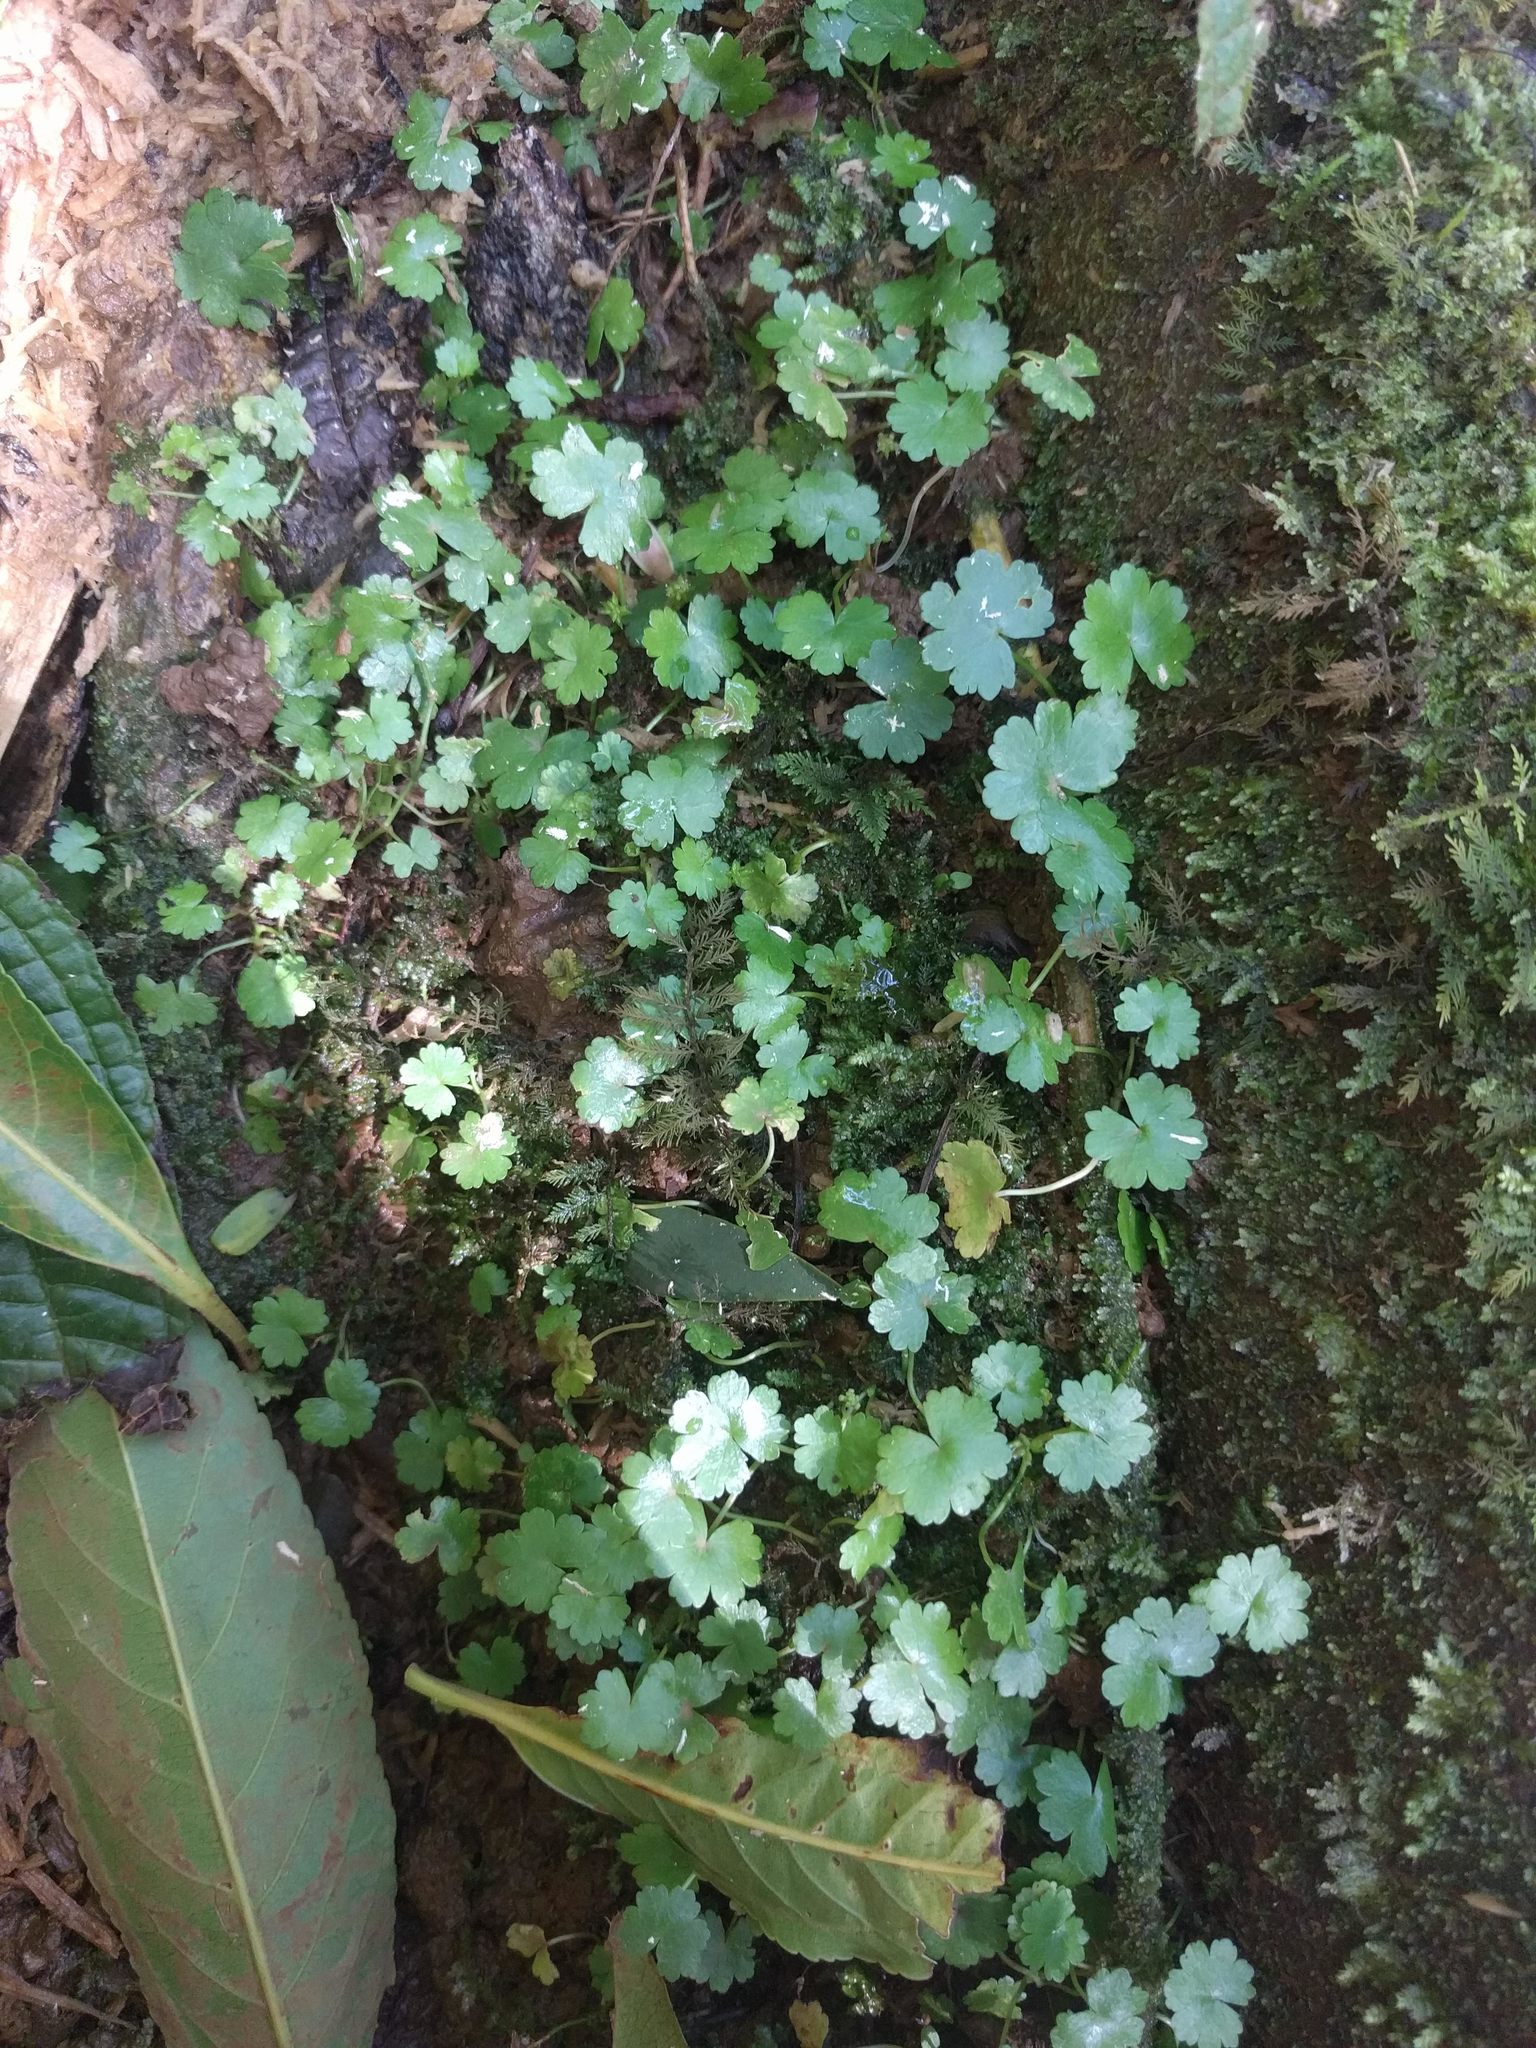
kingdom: Plantae
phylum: Tracheophyta
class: Magnoliopsida
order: Apiales
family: Araliaceae
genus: Hydrocotyle
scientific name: Hydrocotyle sibthorpioides
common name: Lawn marshpennywort
